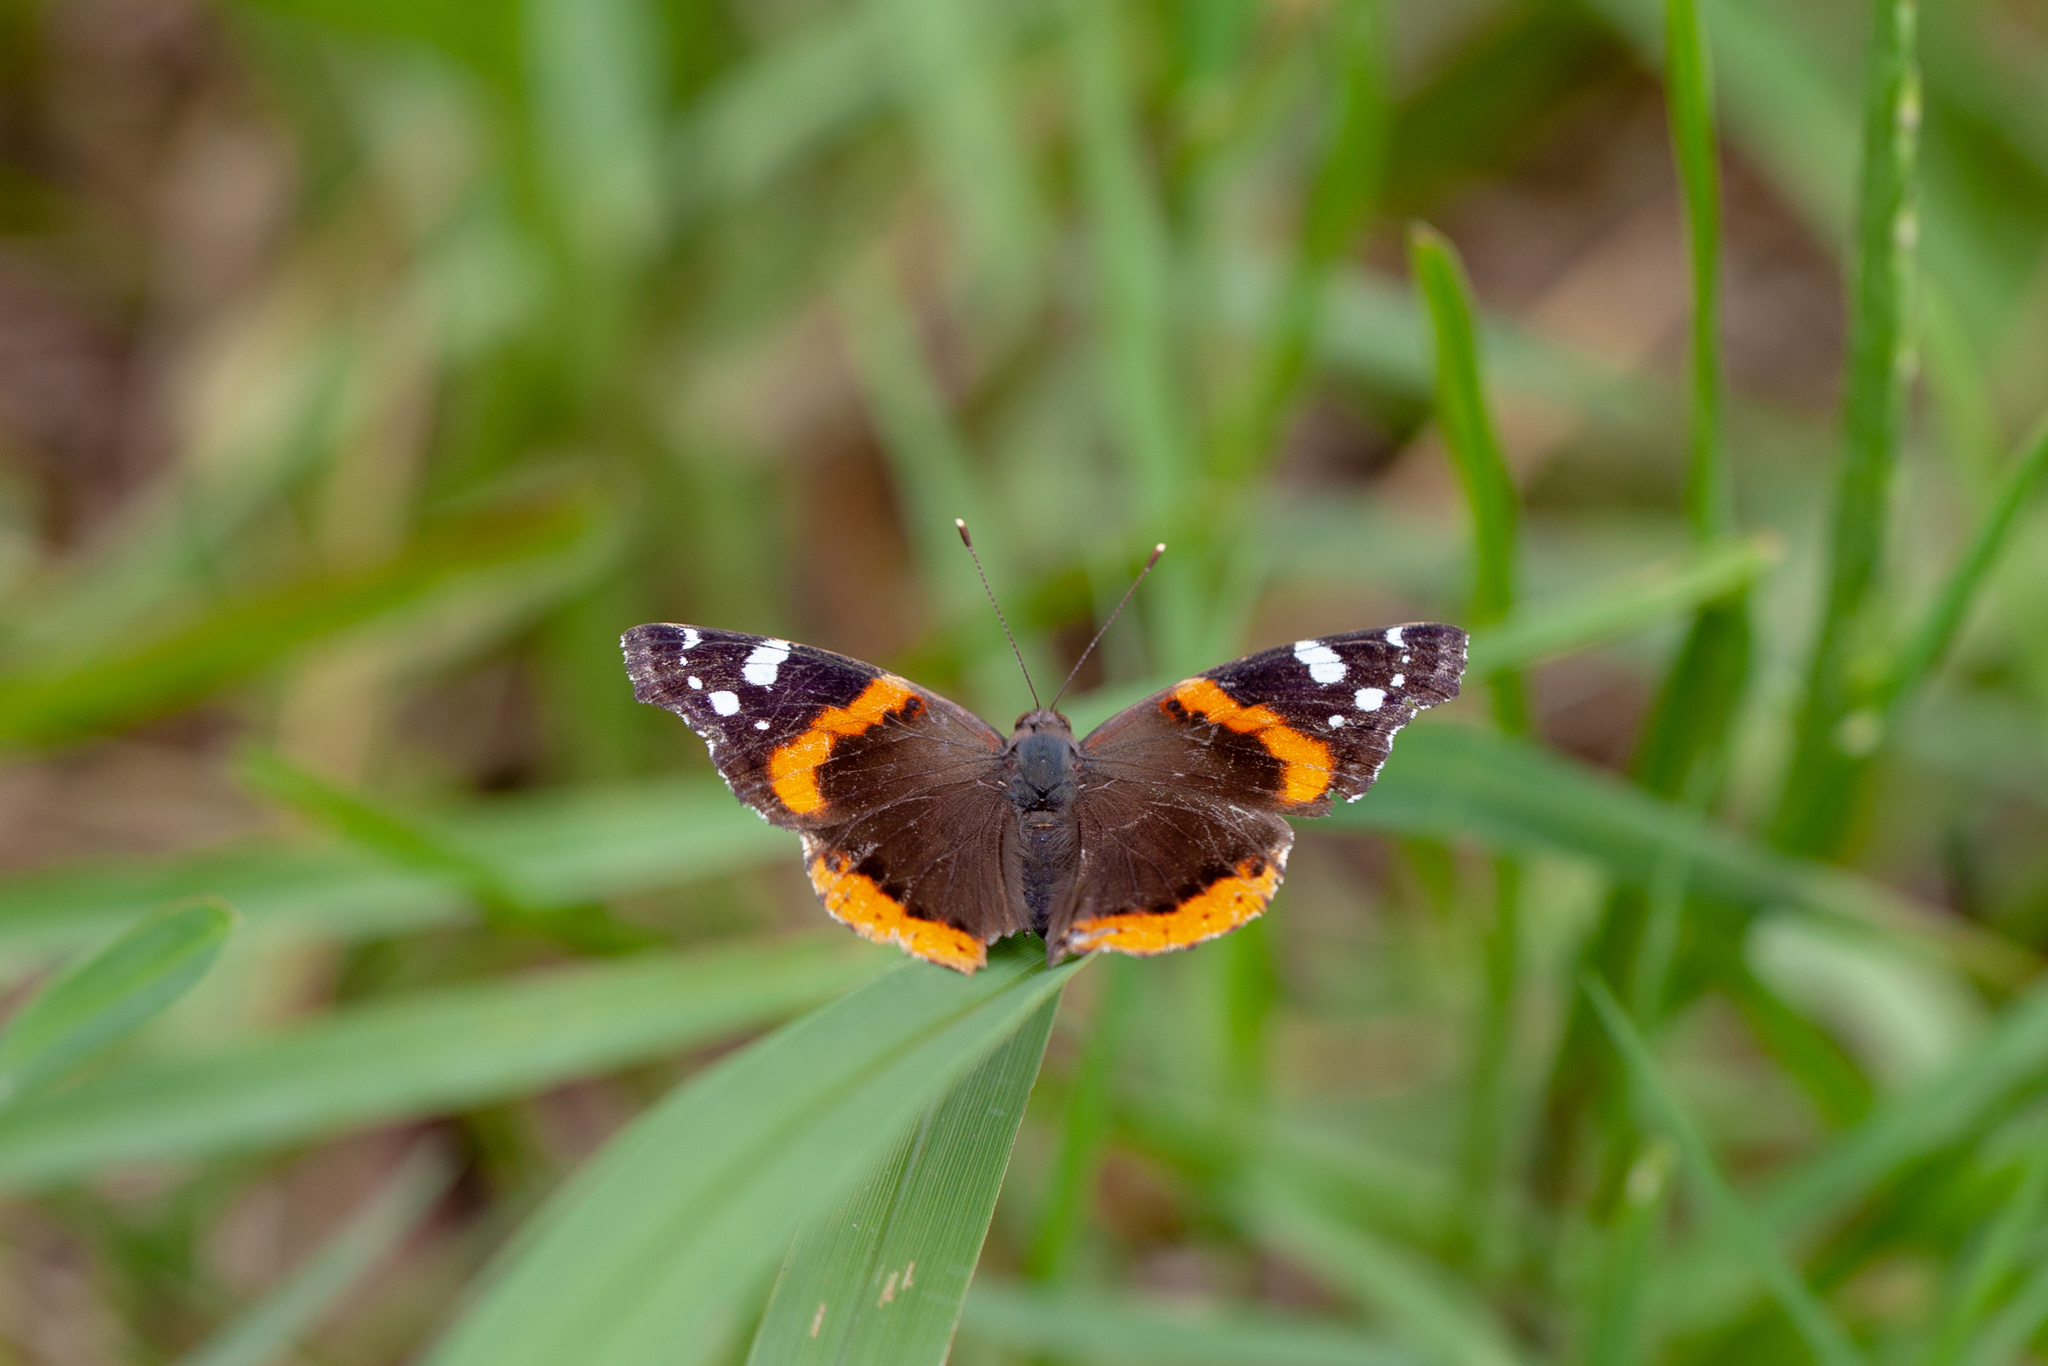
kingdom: Animalia
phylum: Arthropoda
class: Insecta
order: Lepidoptera
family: Nymphalidae
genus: Vanessa
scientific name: Vanessa atalanta
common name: Red admiral
